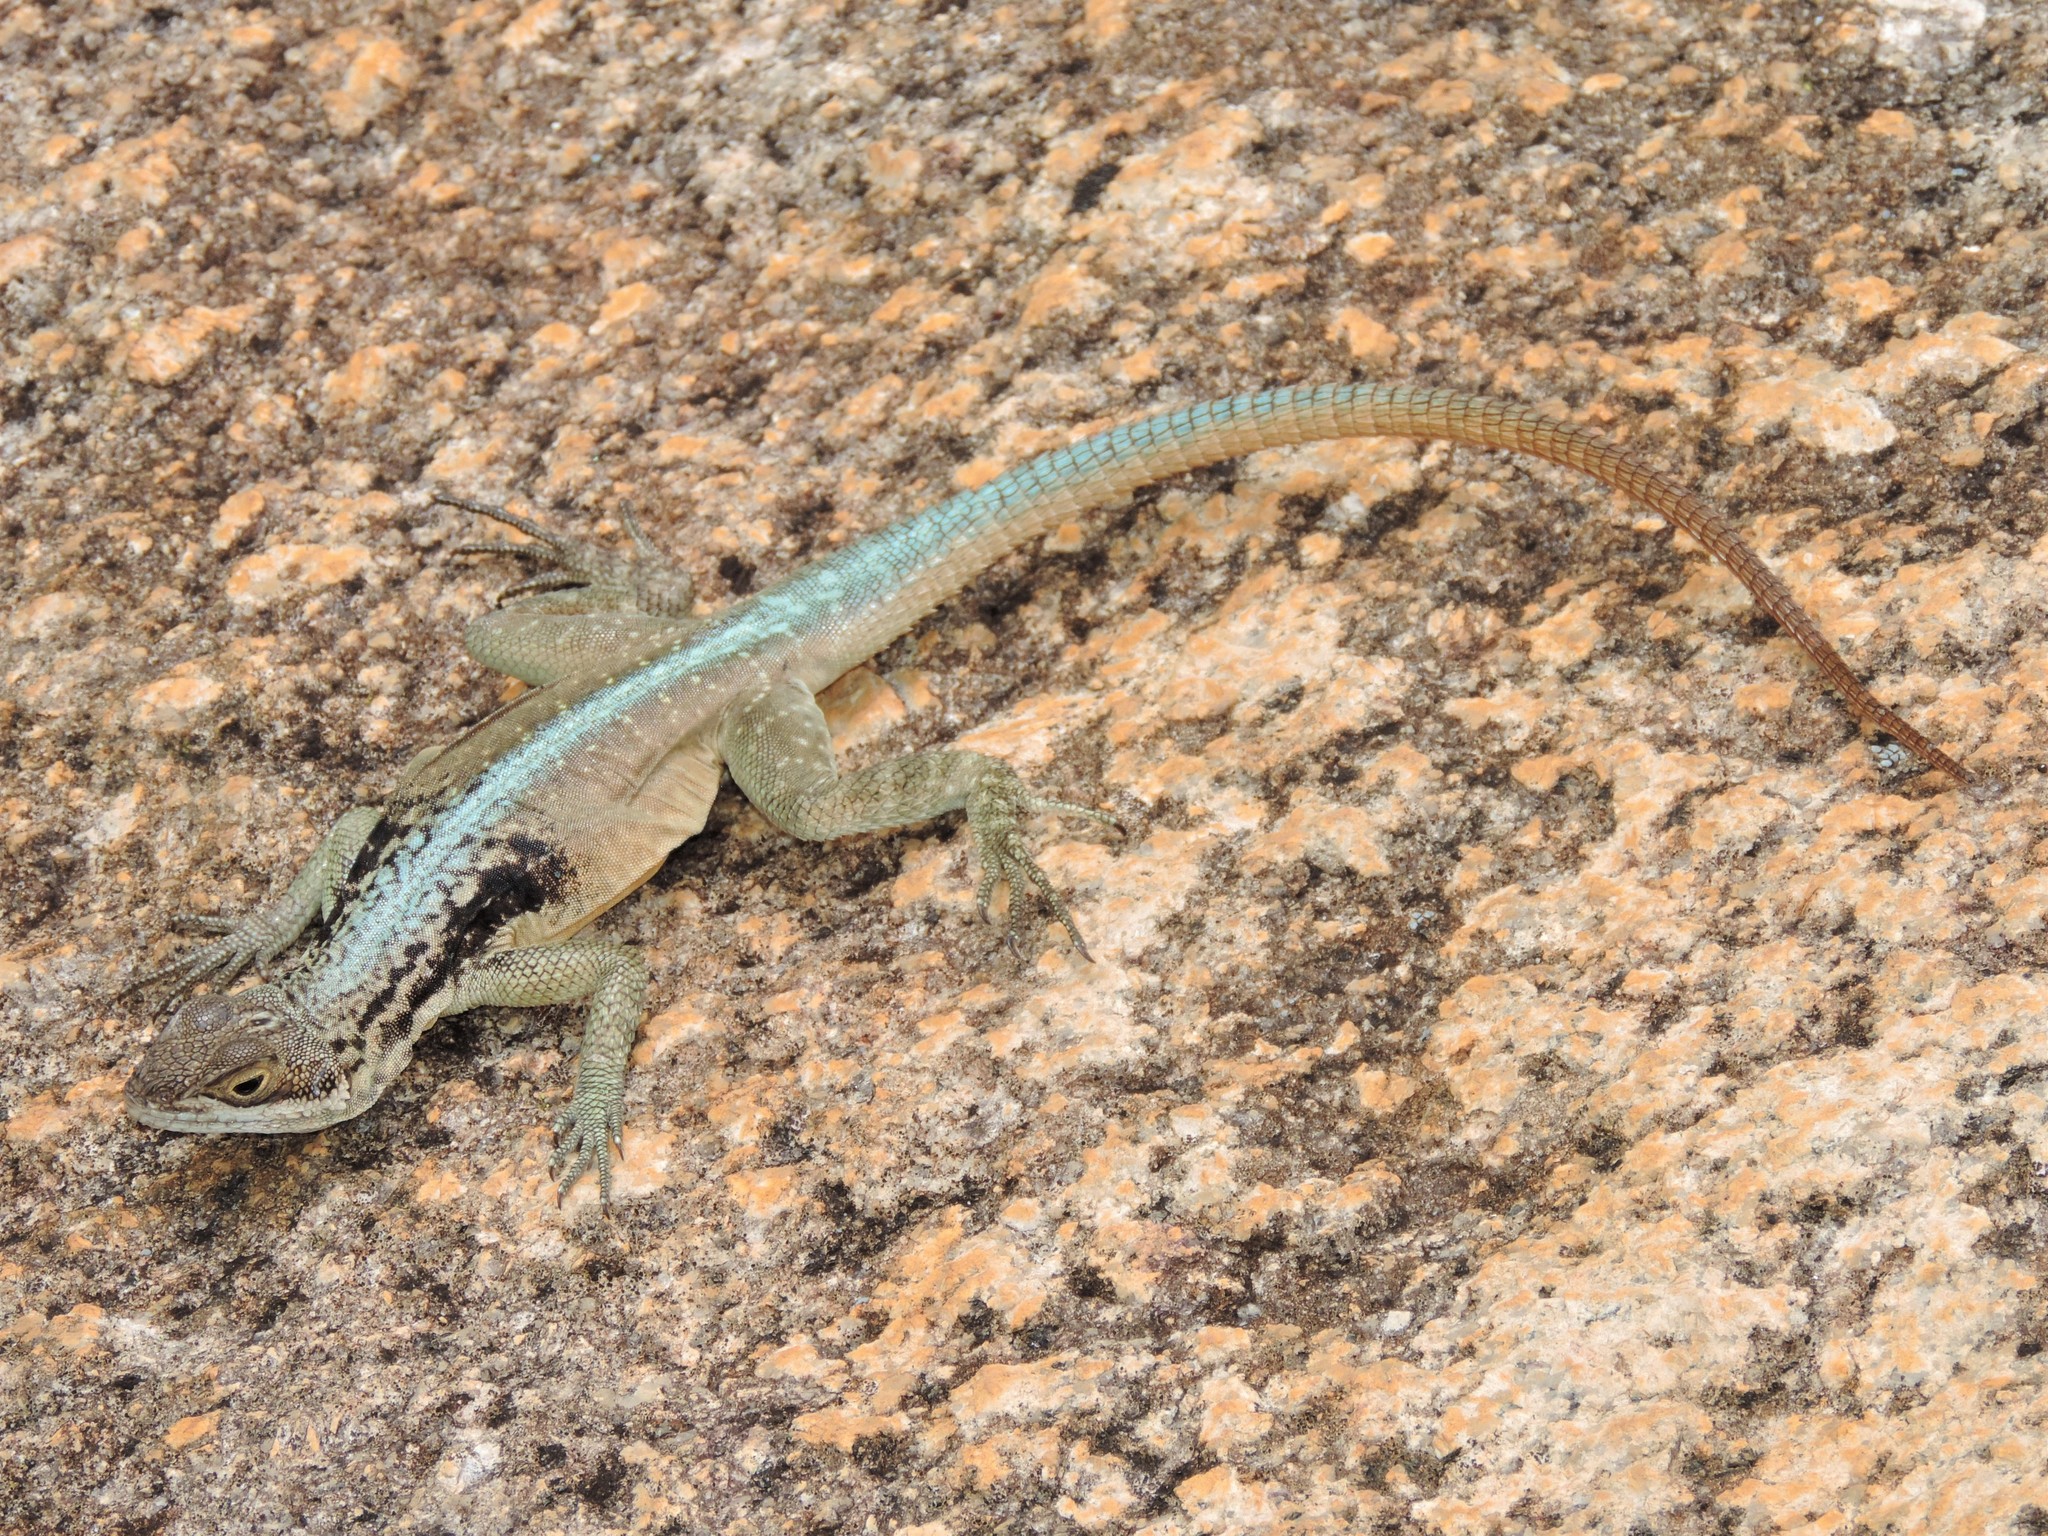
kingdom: Animalia
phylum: Chordata
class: Squamata
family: Opluridae
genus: Oplurus
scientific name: Oplurus grandidieri
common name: Grandidier's madagascar swift
